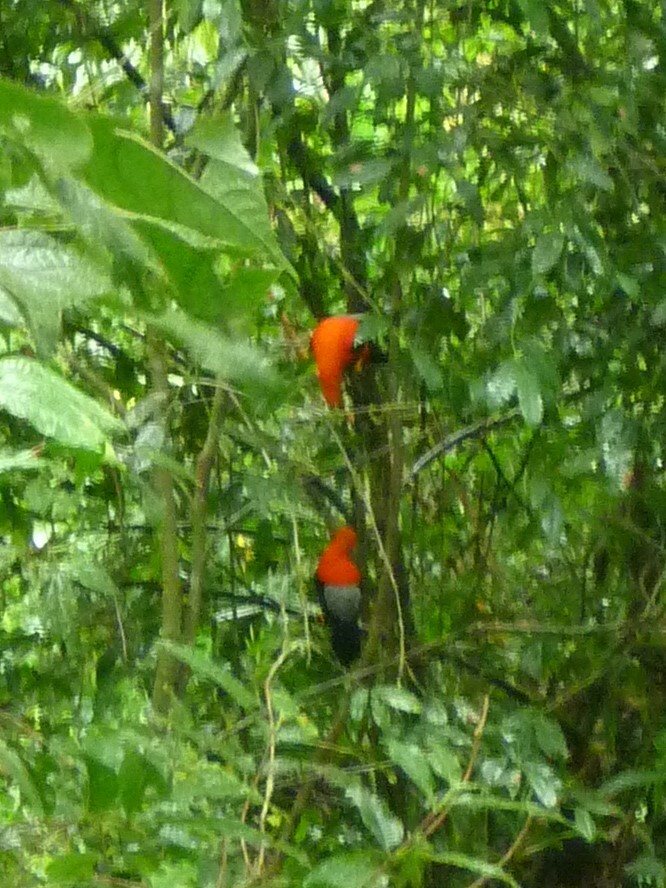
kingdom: Animalia
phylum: Chordata
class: Aves
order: Passeriformes
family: Cotingidae
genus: Rupicola
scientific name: Rupicola peruvianus
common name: Andean cock-of-the-rock
